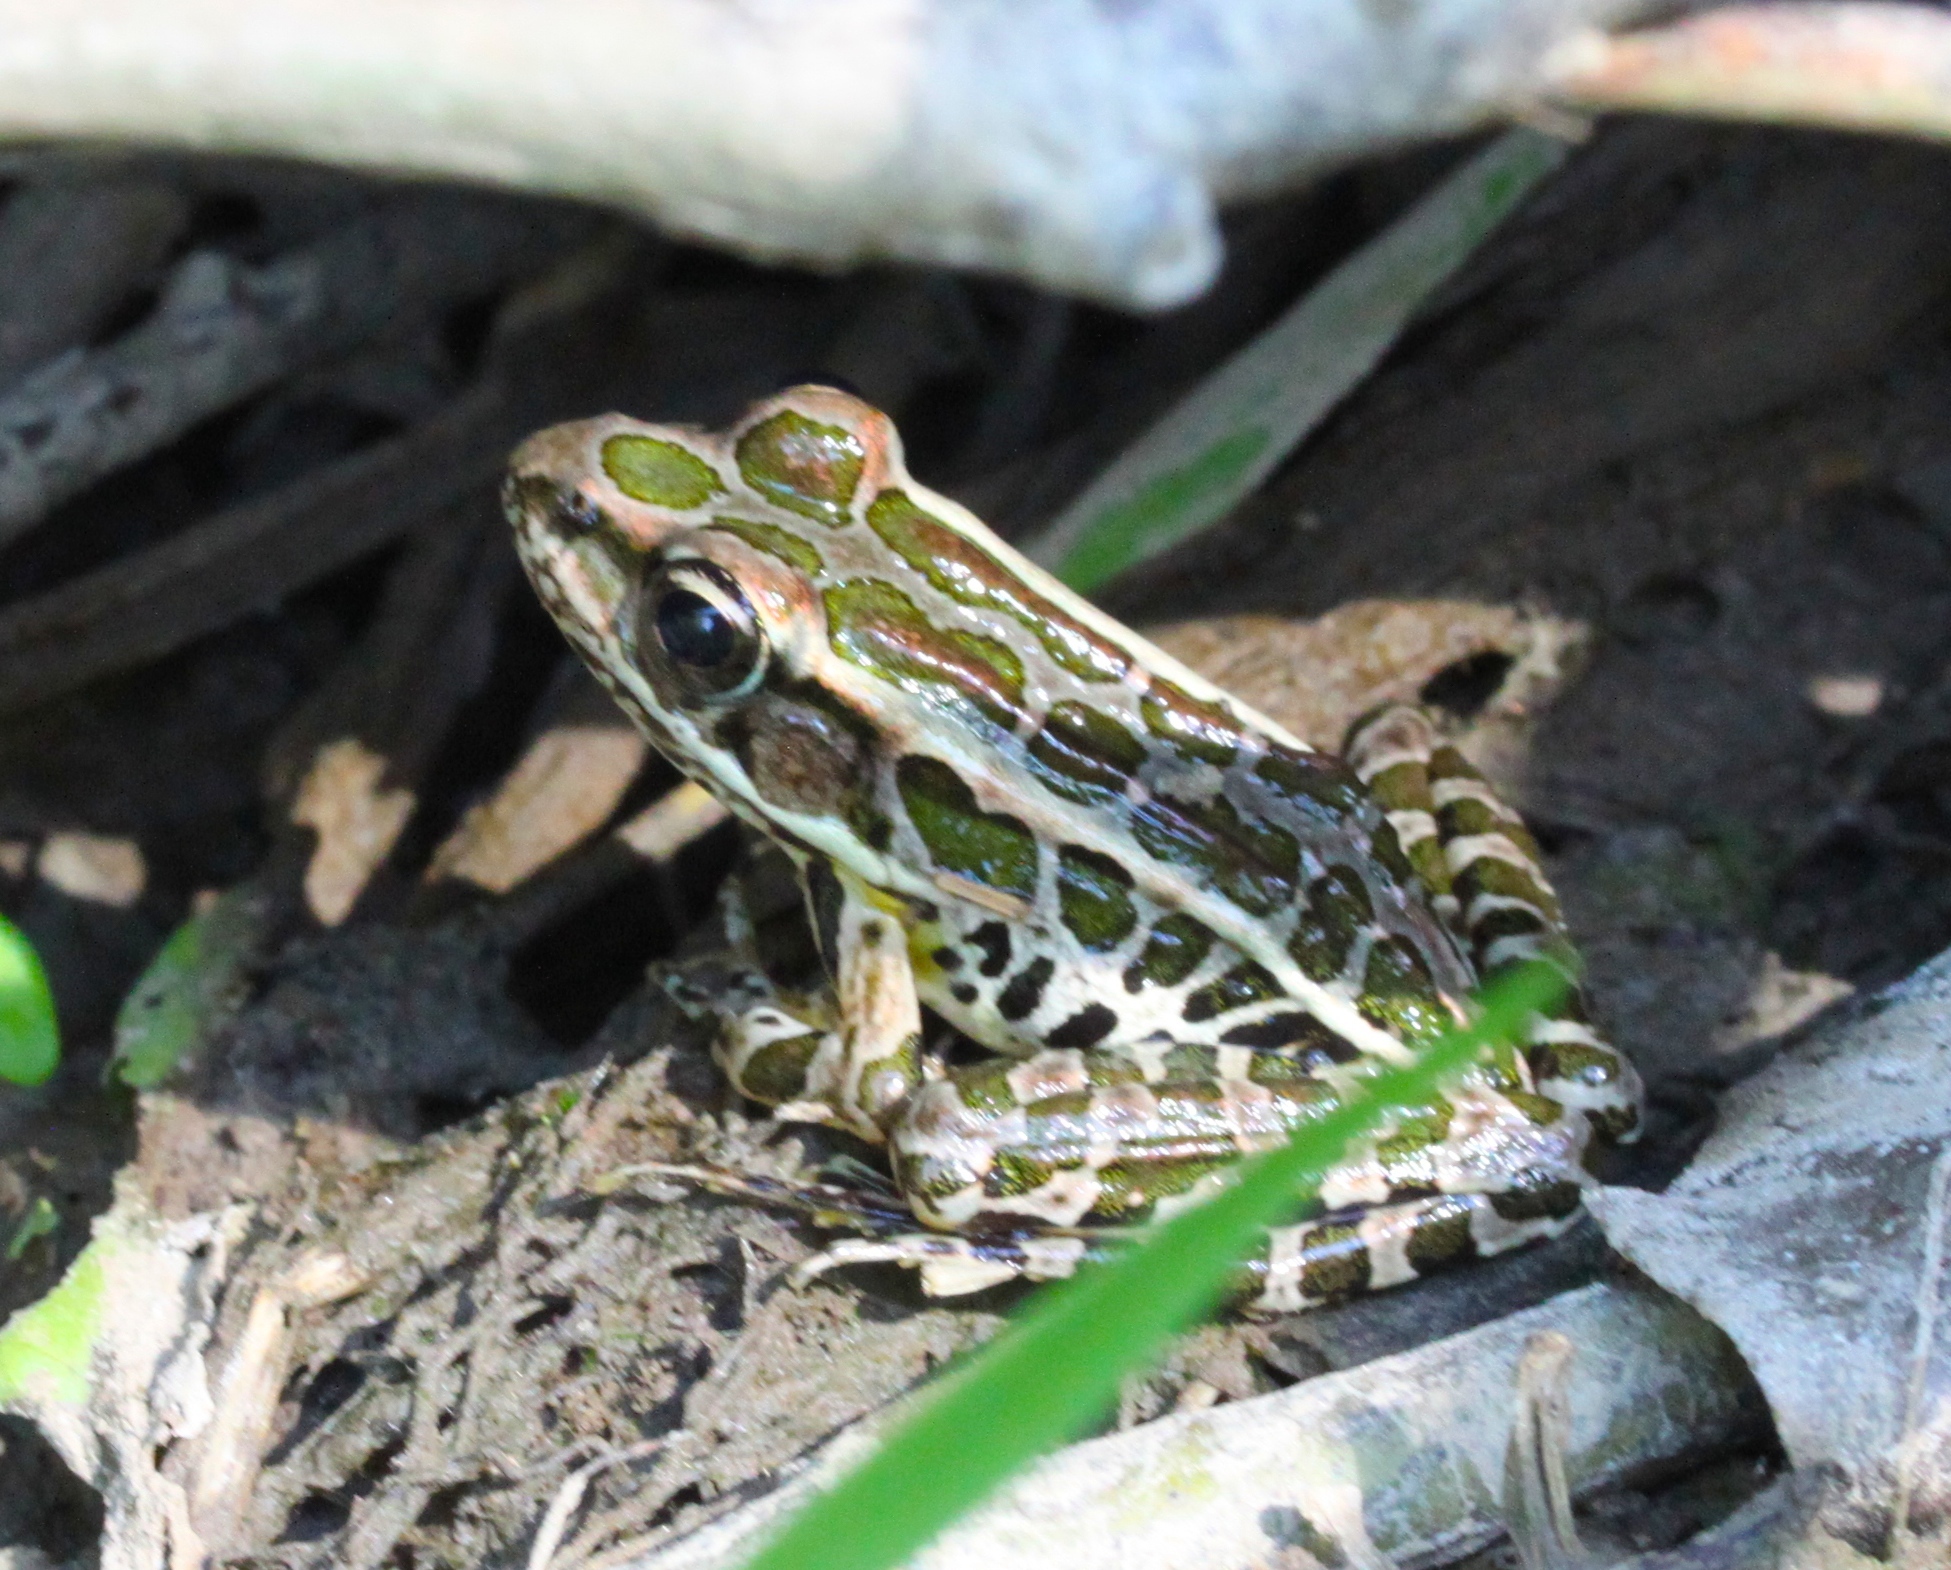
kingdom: Animalia
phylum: Chordata
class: Amphibia
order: Anura
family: Ranidae
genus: Lithobates
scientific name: Lithobates palustris
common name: Pickerel frog
